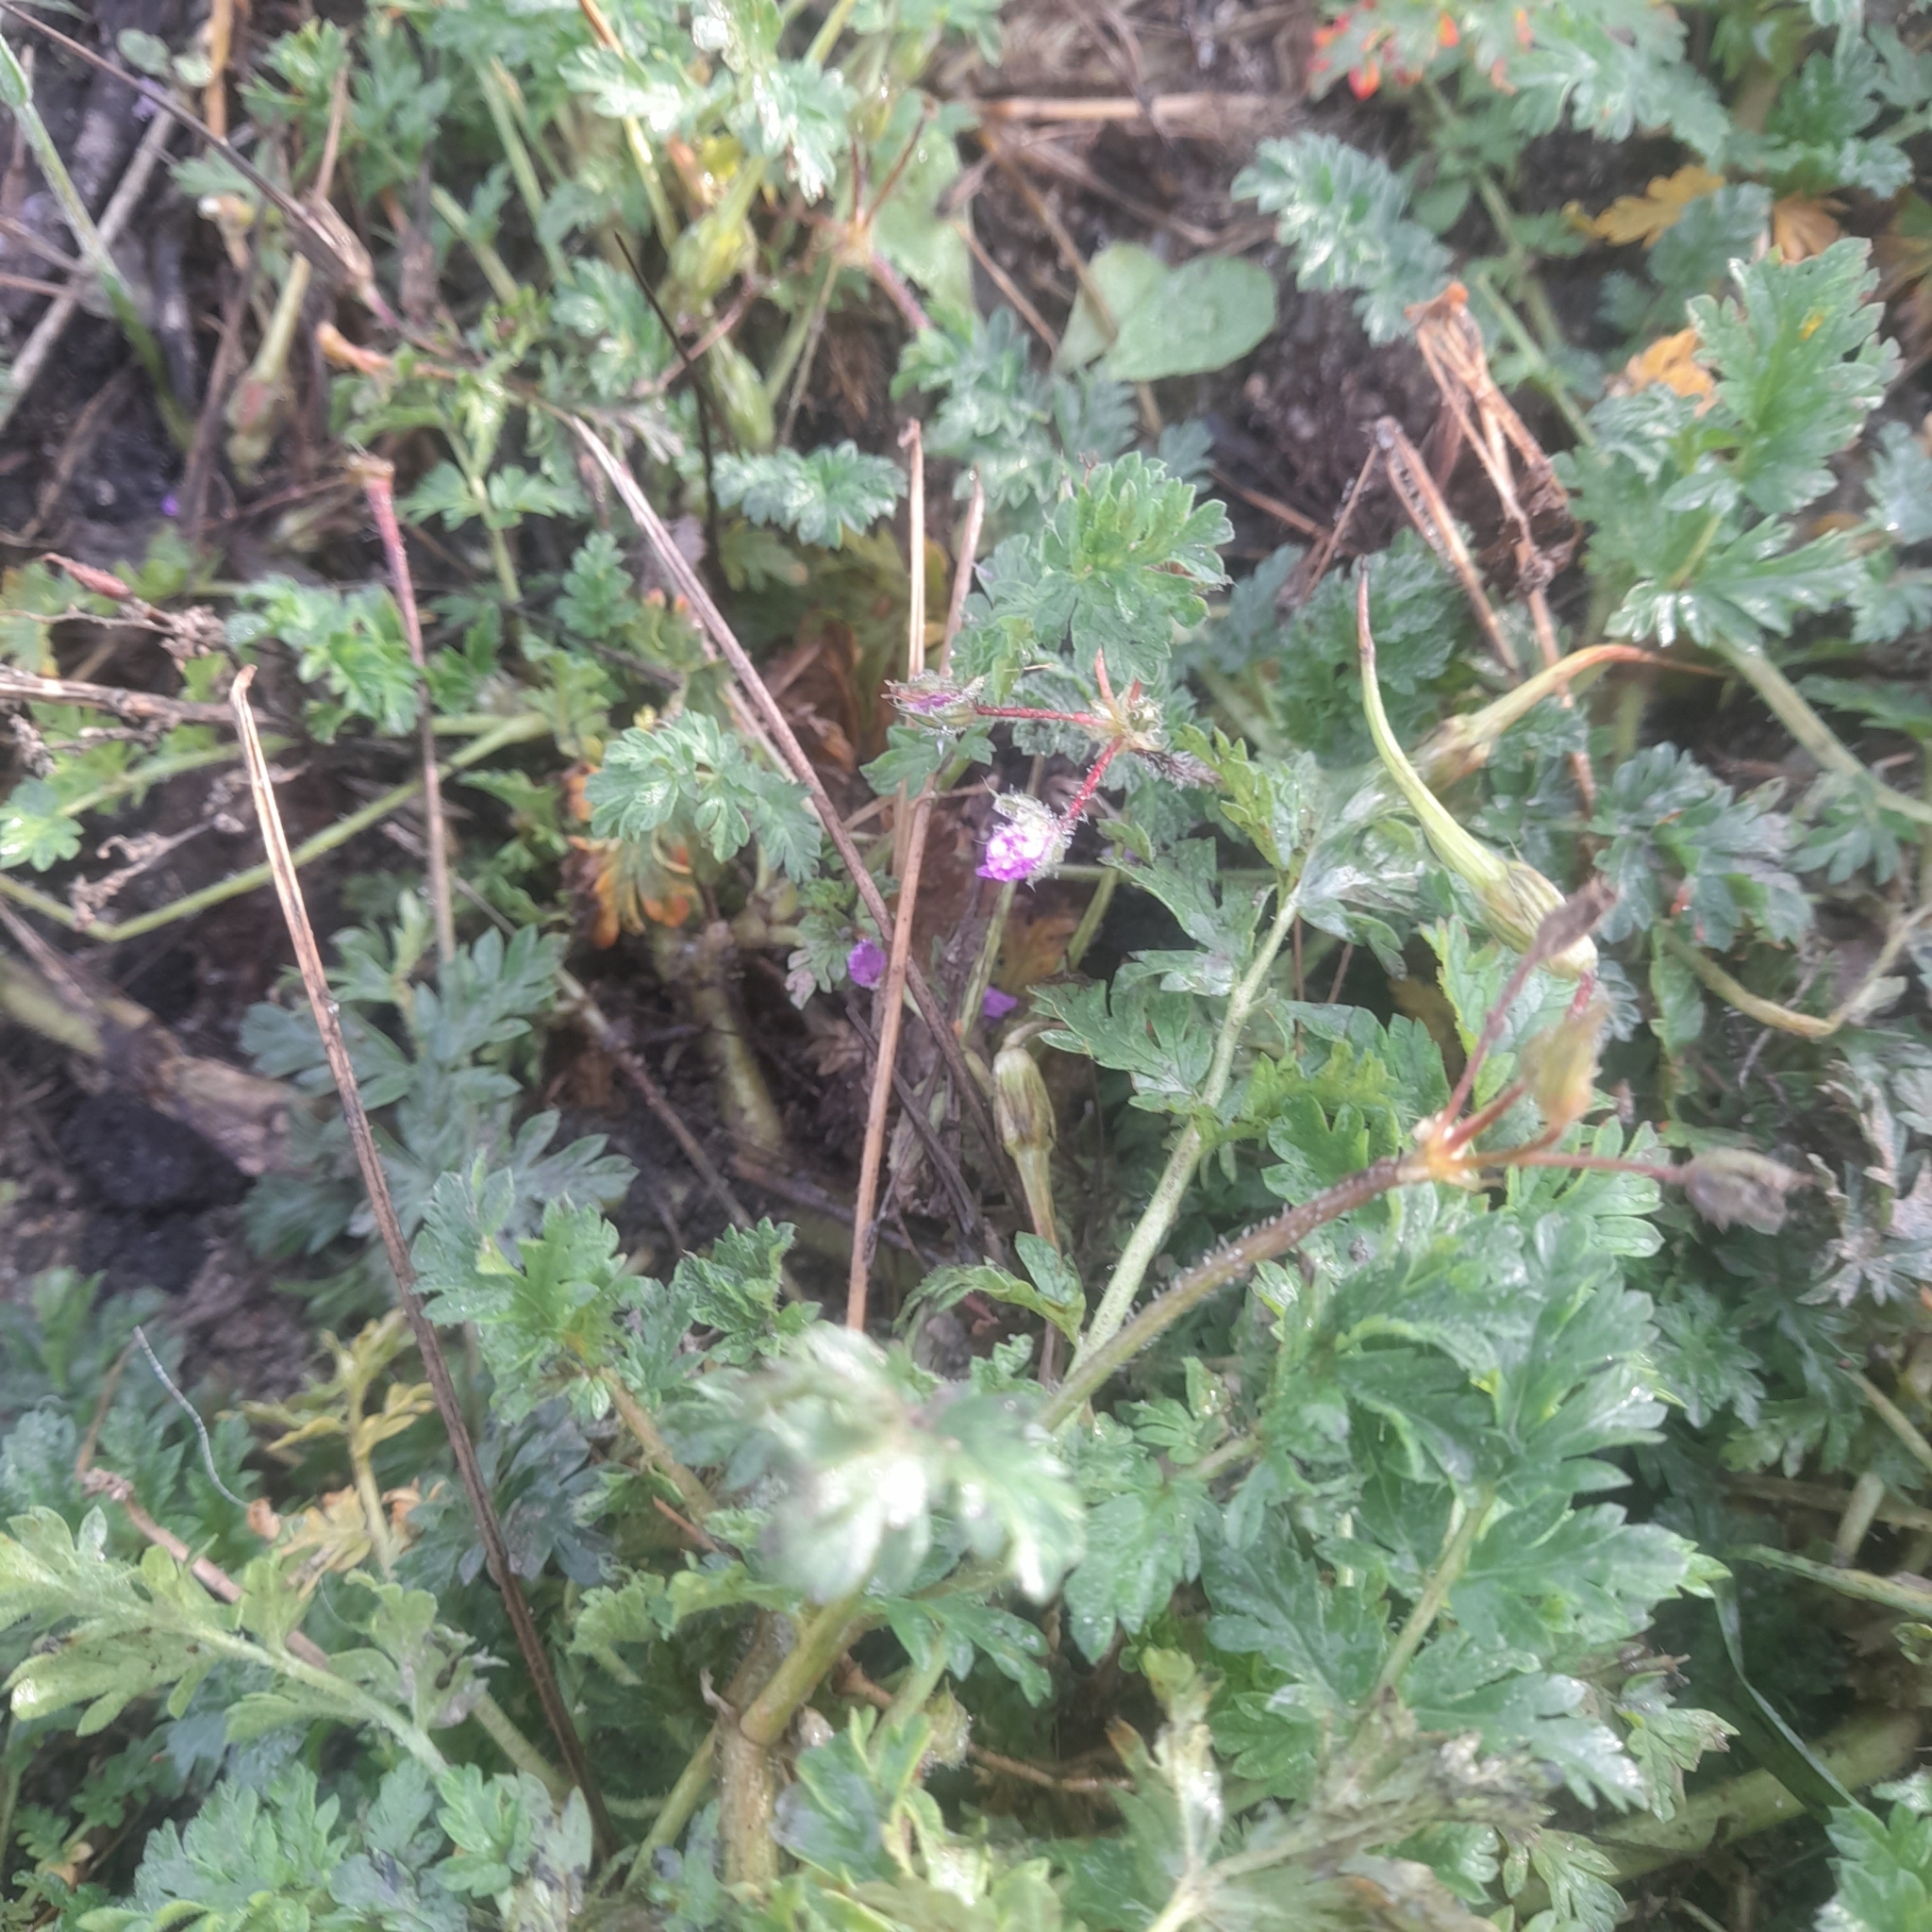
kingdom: Plantae
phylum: Tracheophyta
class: Magnoliopsida
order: Geraniales
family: Geraniaceae
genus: Erodium
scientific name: Erodium cicutarium
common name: Common stork's-bill
